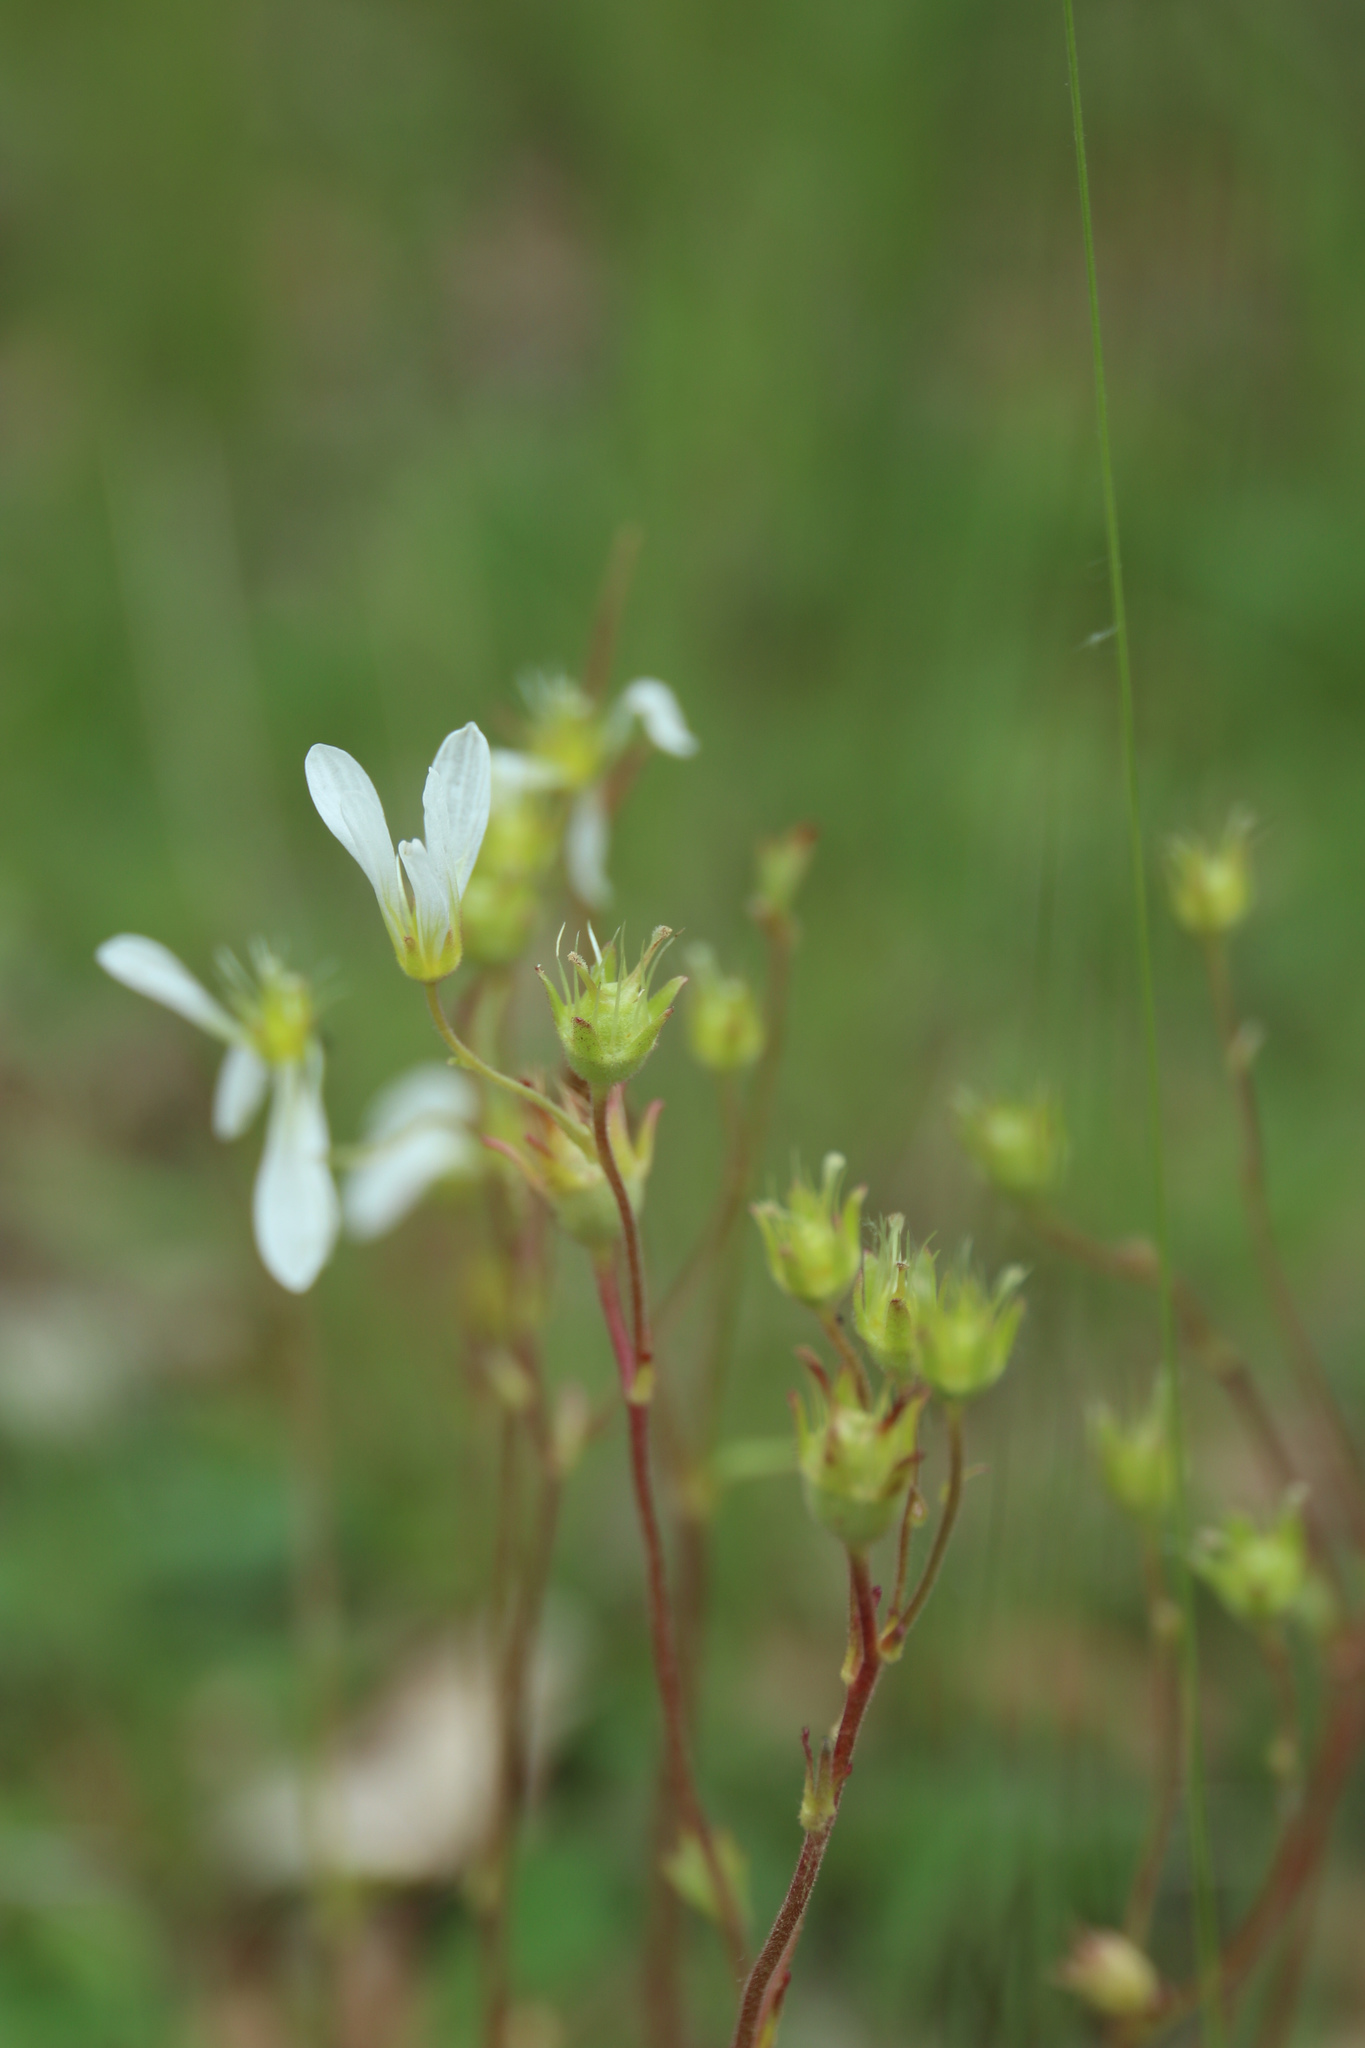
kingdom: Plantae
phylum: Tracheophyta
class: Magnoliopsida
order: Saxifragales
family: Saxifragaceae
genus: Saxifraga
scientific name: Saxifraga tridactylites
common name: Rue-leaved saxifrage
